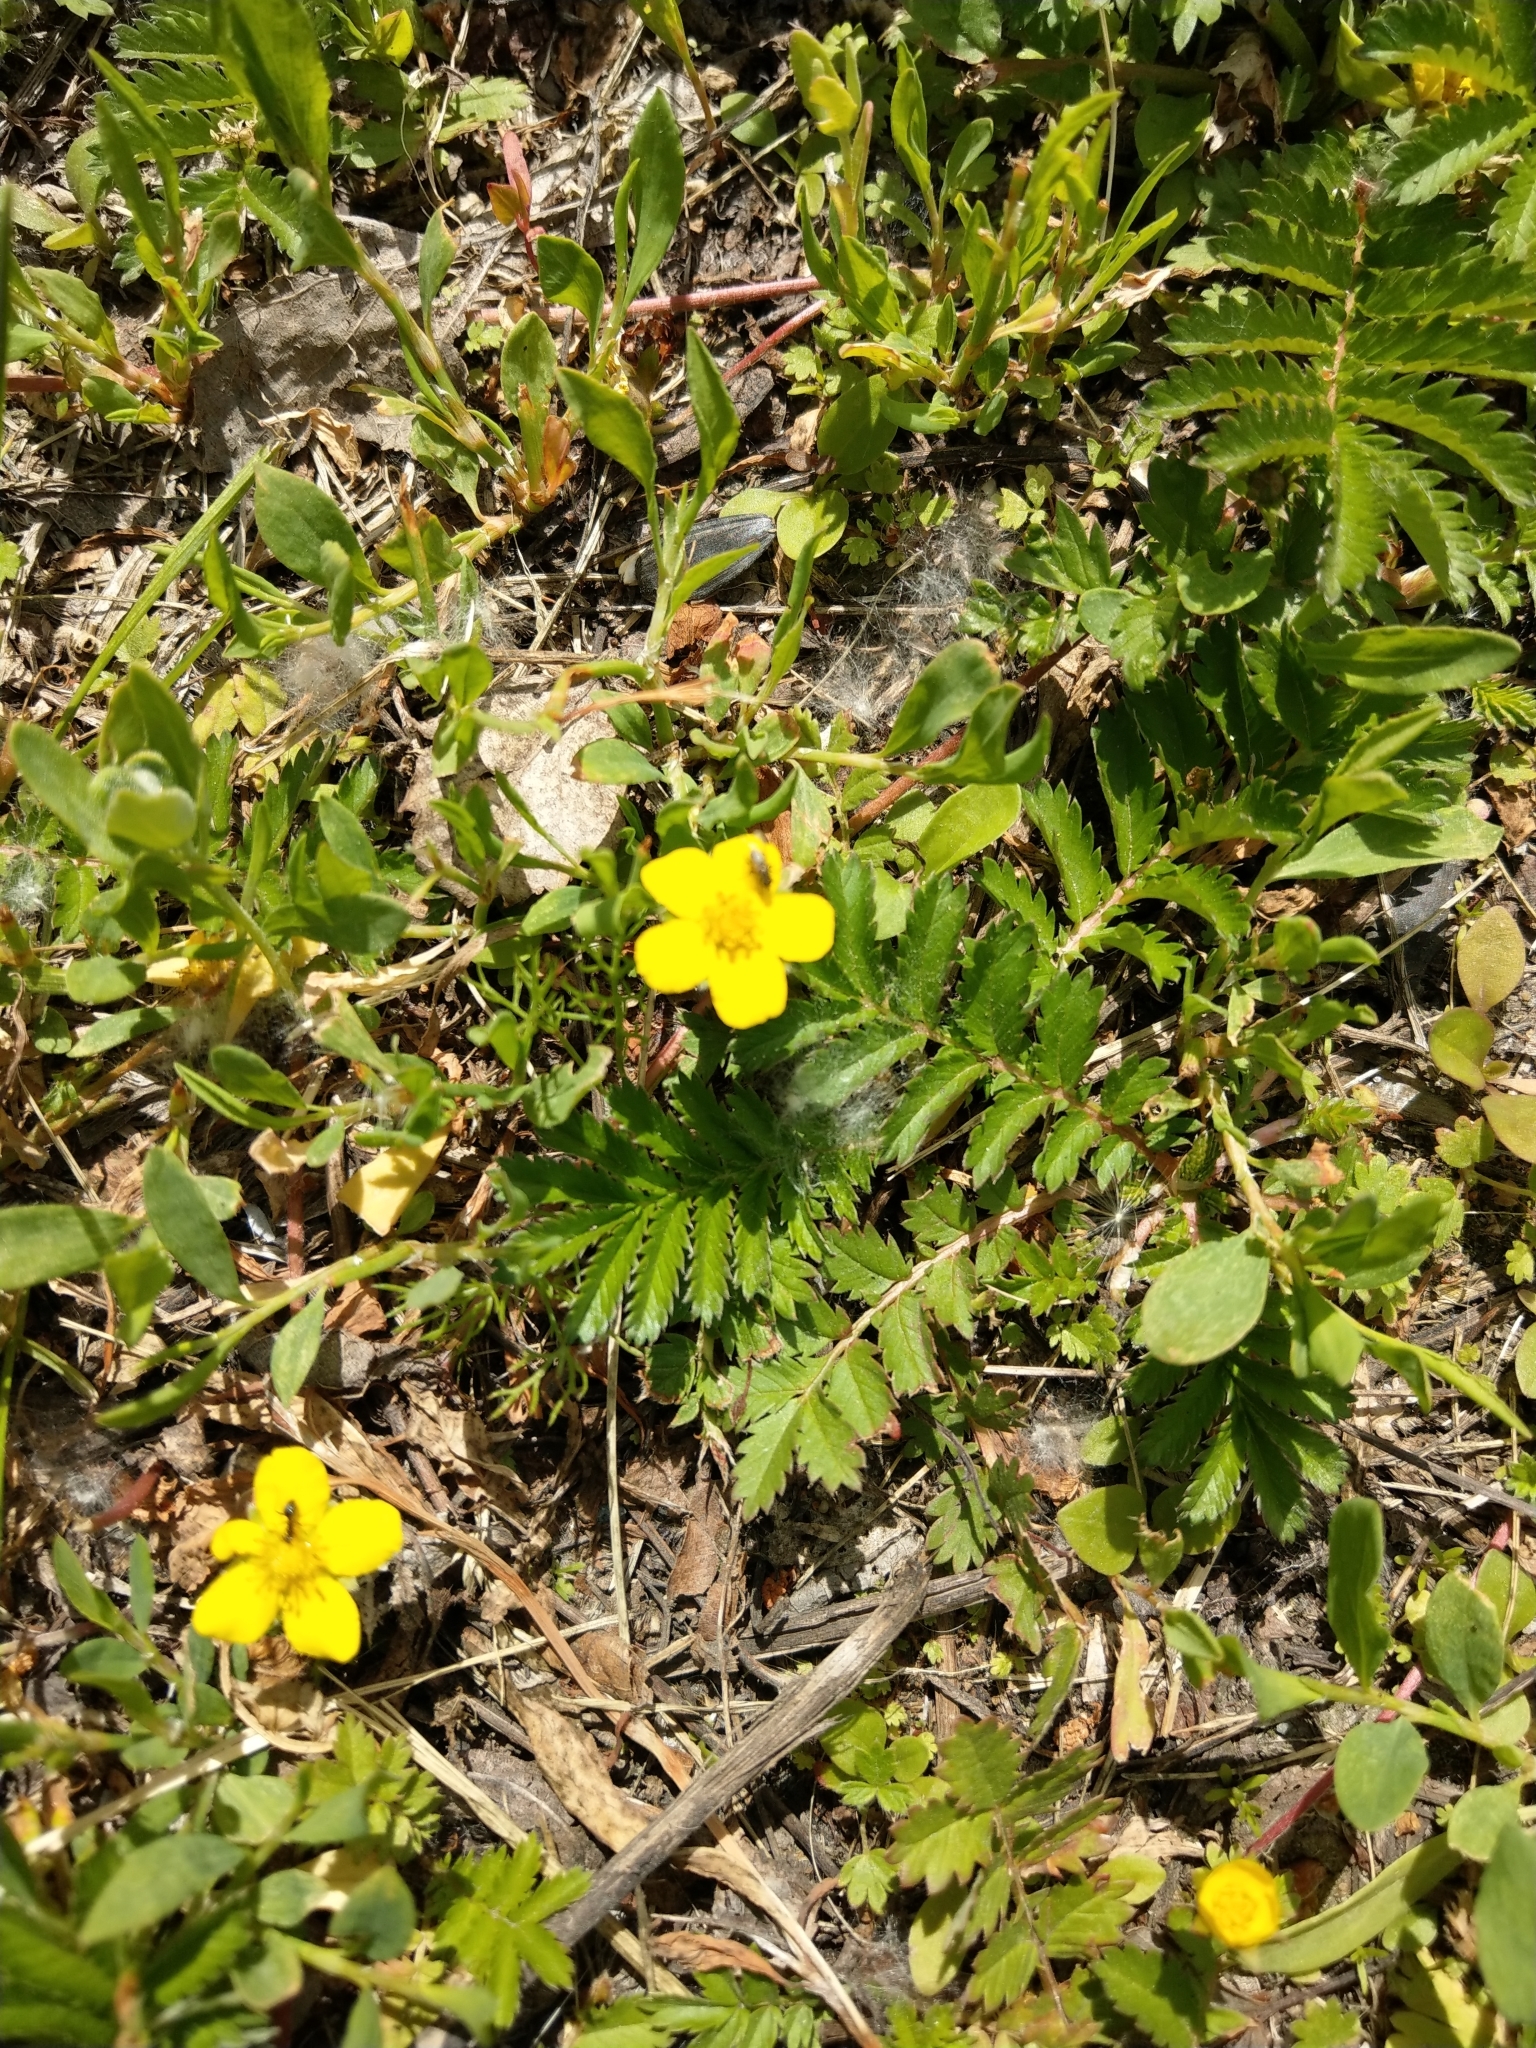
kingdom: Plantae
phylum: Tracheophyta
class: Magnoliopsida
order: Rosales
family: Rosaceae
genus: Argentina
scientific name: Argentina anserina
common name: Common silverweed
